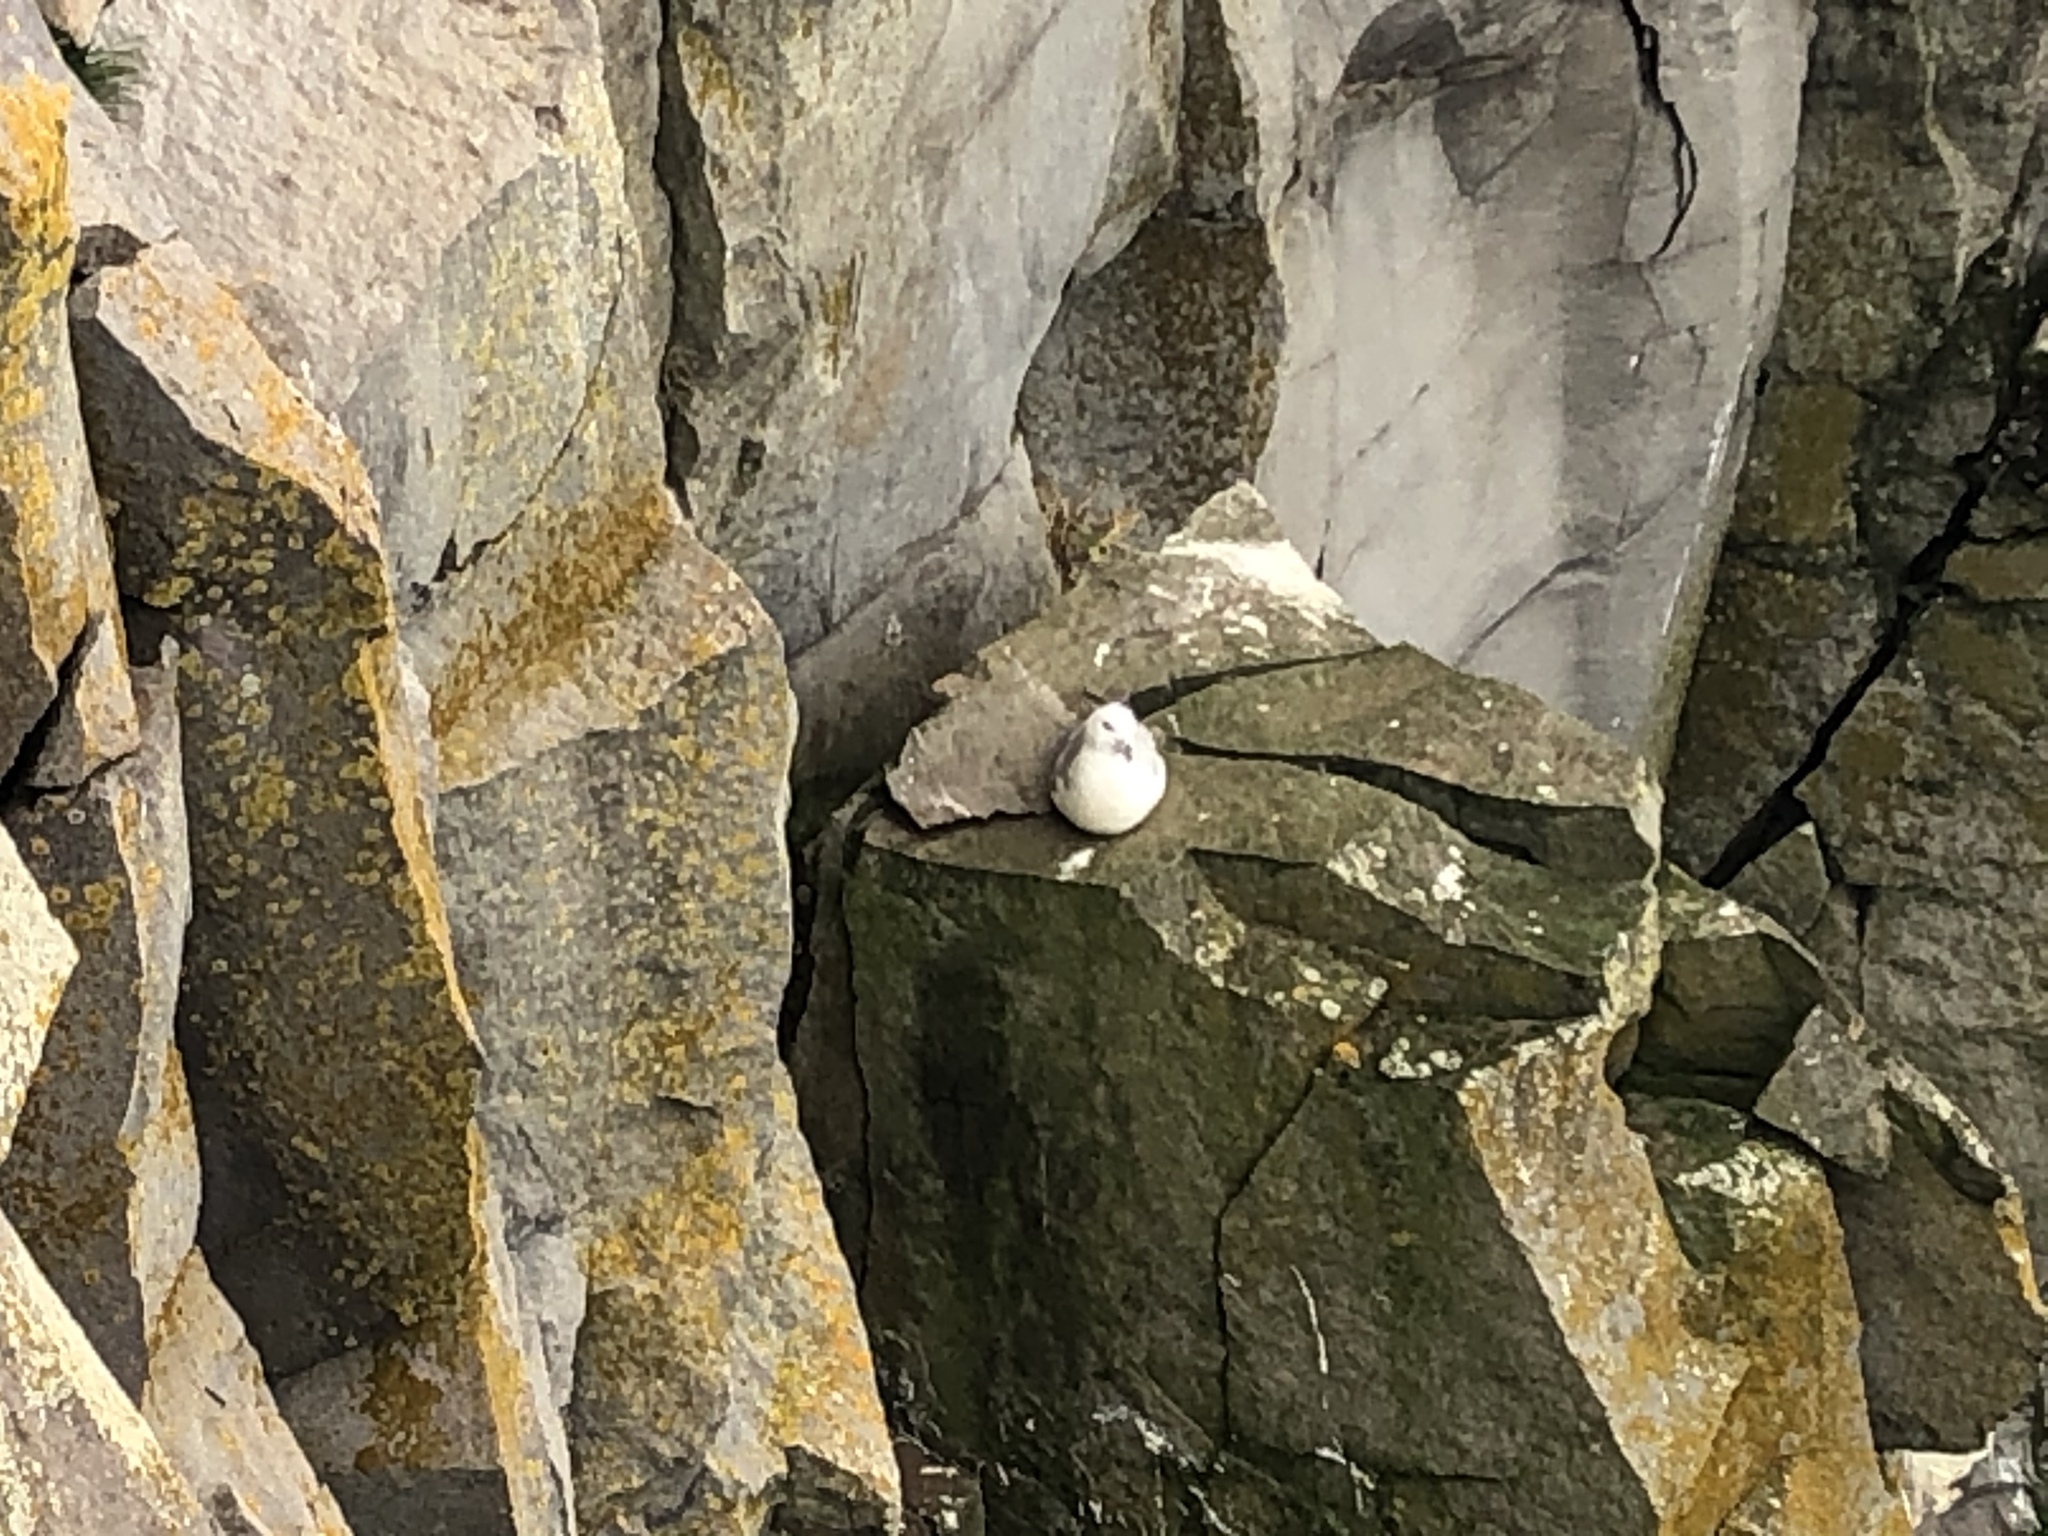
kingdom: Animalia
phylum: Chordata
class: Aves
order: Procellariiformes
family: Procellariidae
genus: Fulmarus
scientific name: Fulmarus glacialis
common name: Northern fulmar
